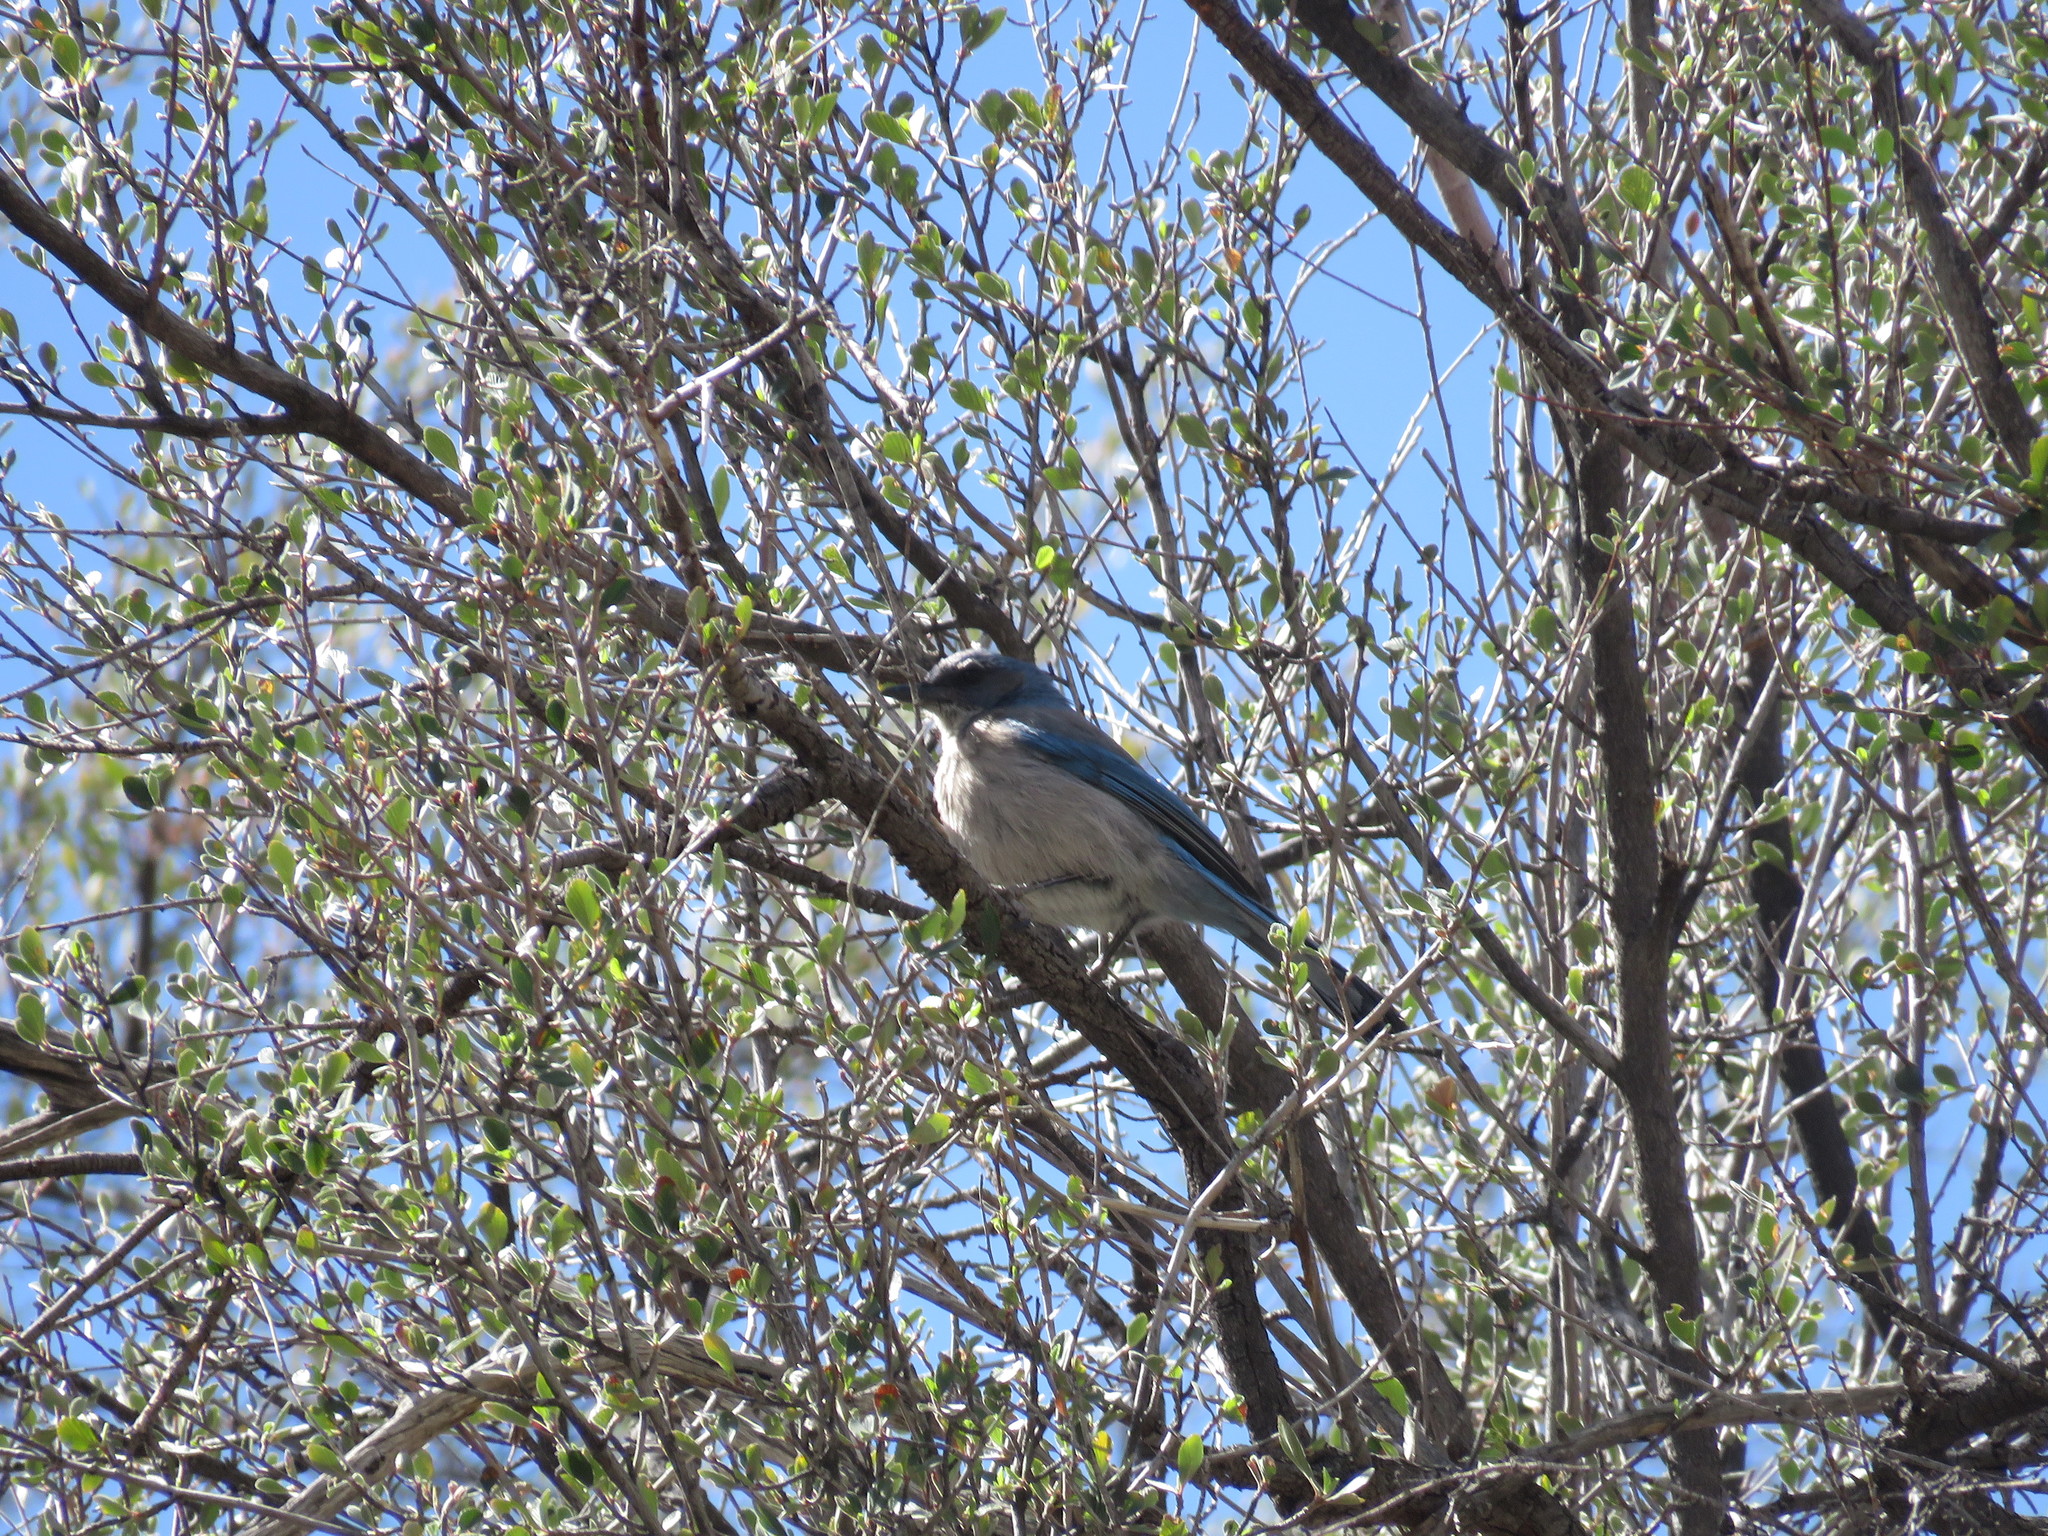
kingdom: Animalia
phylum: Chordata
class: Aves
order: Passeriformes
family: Corvidae
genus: Aphelocoma
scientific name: Aphelocoma woodhouseii
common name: Woodhouse's scrub-jay
